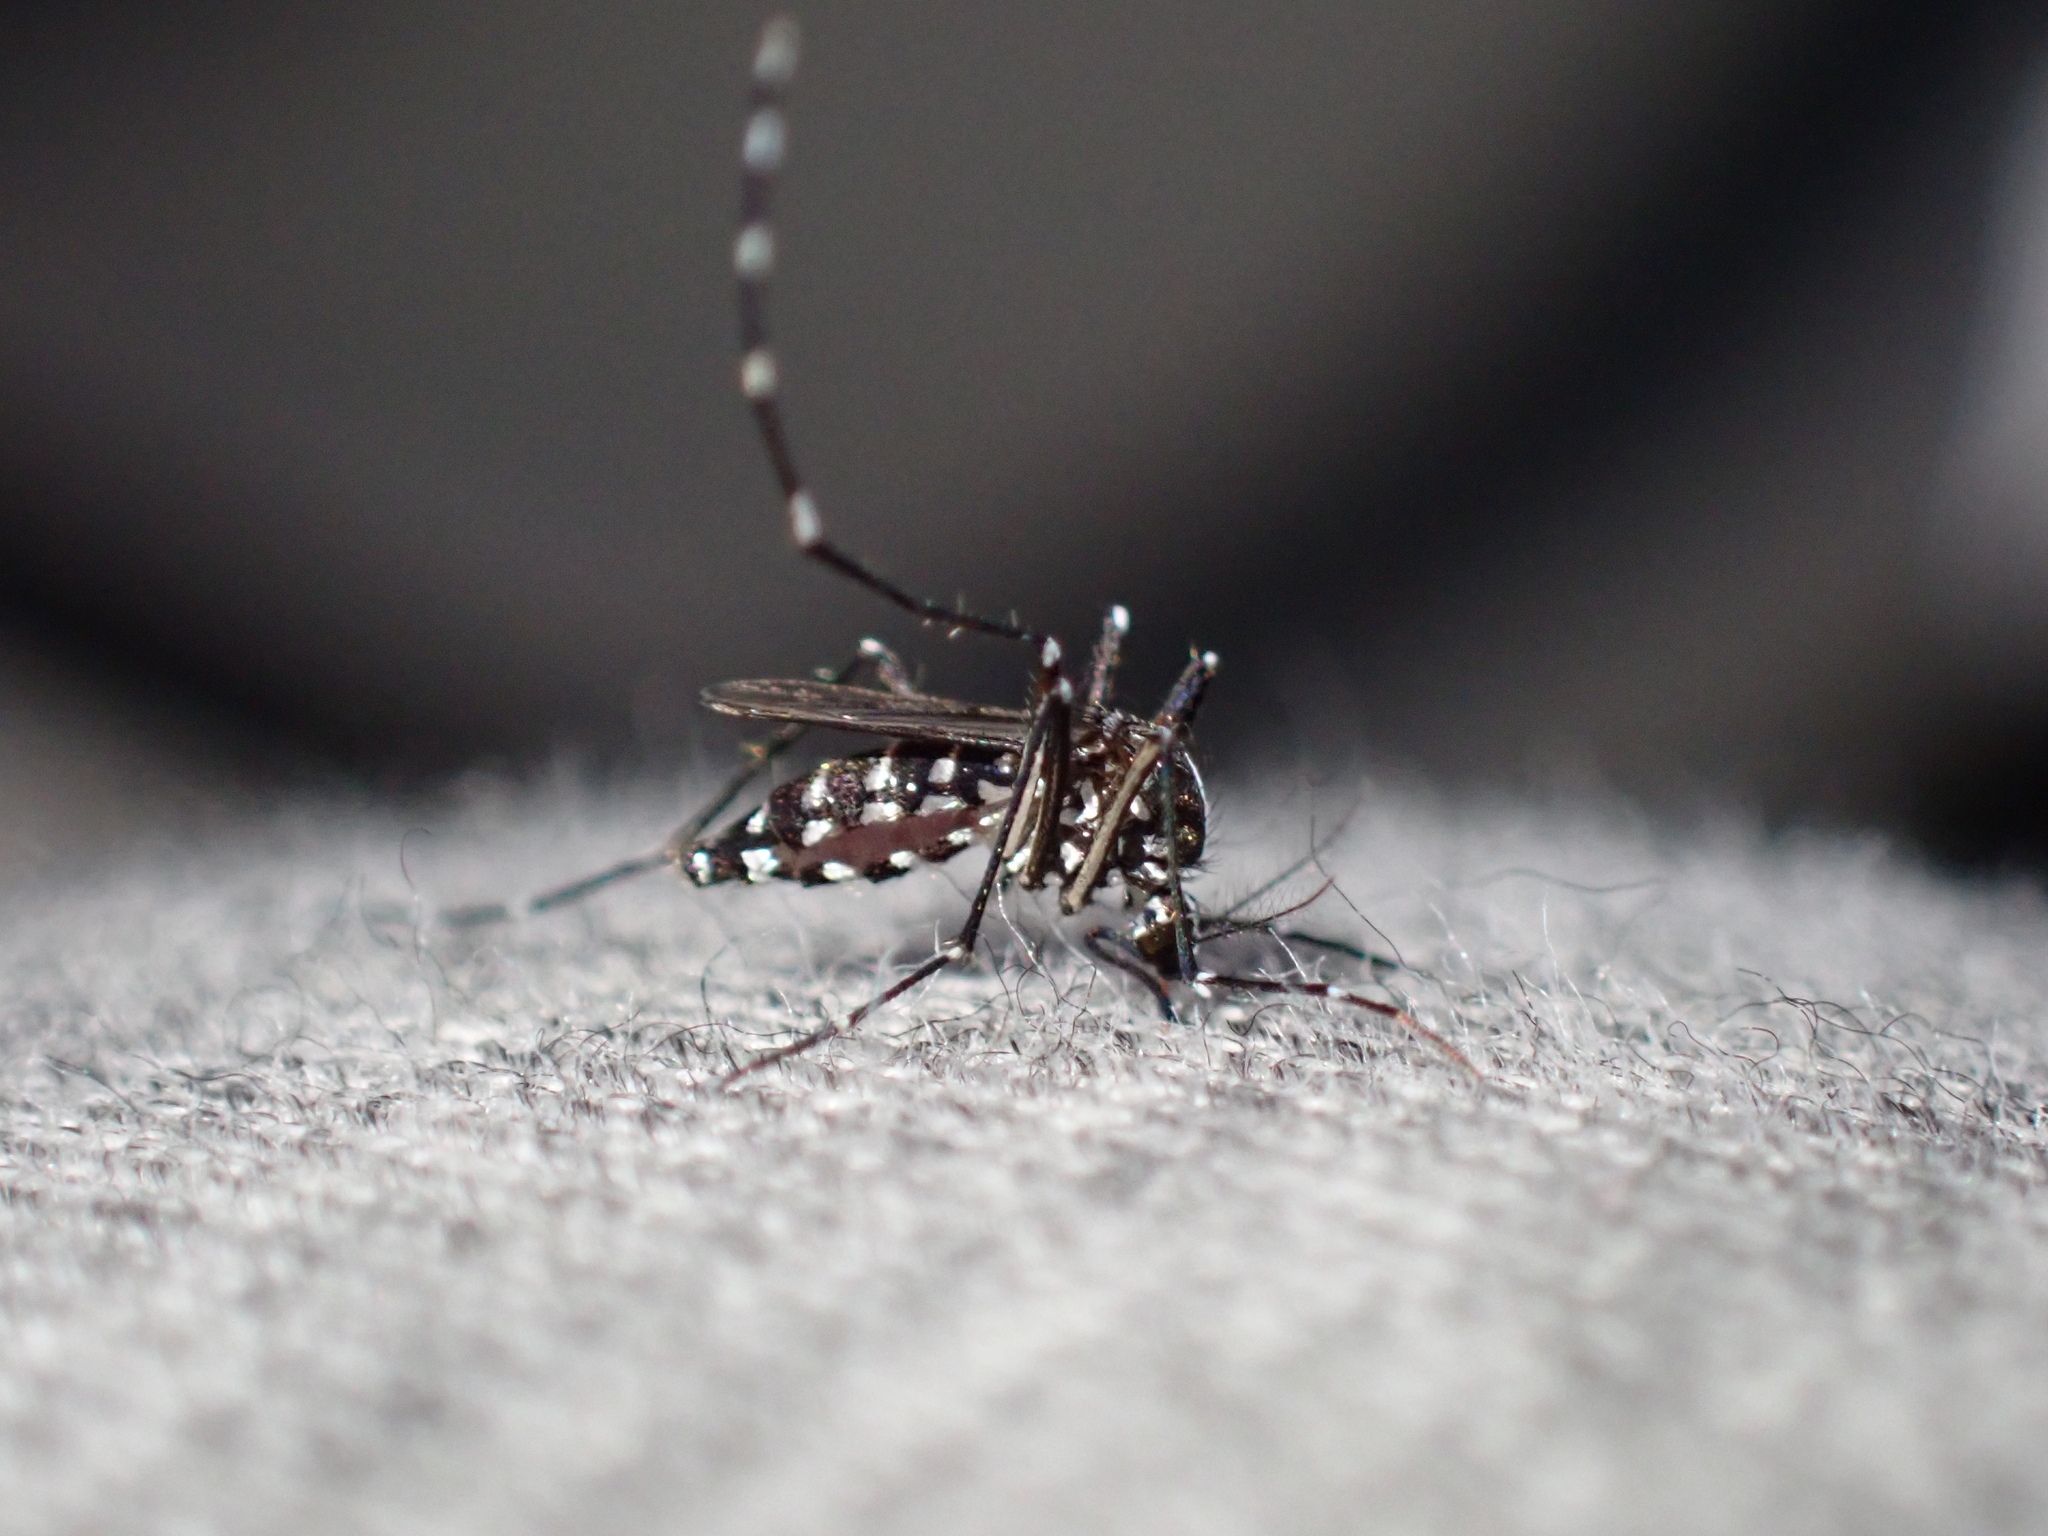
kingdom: Animalia
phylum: Arthropoda
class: Insecta
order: Diptera
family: Culicidae
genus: Aedes
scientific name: Aedes albopictus
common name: Tiger mosquito
